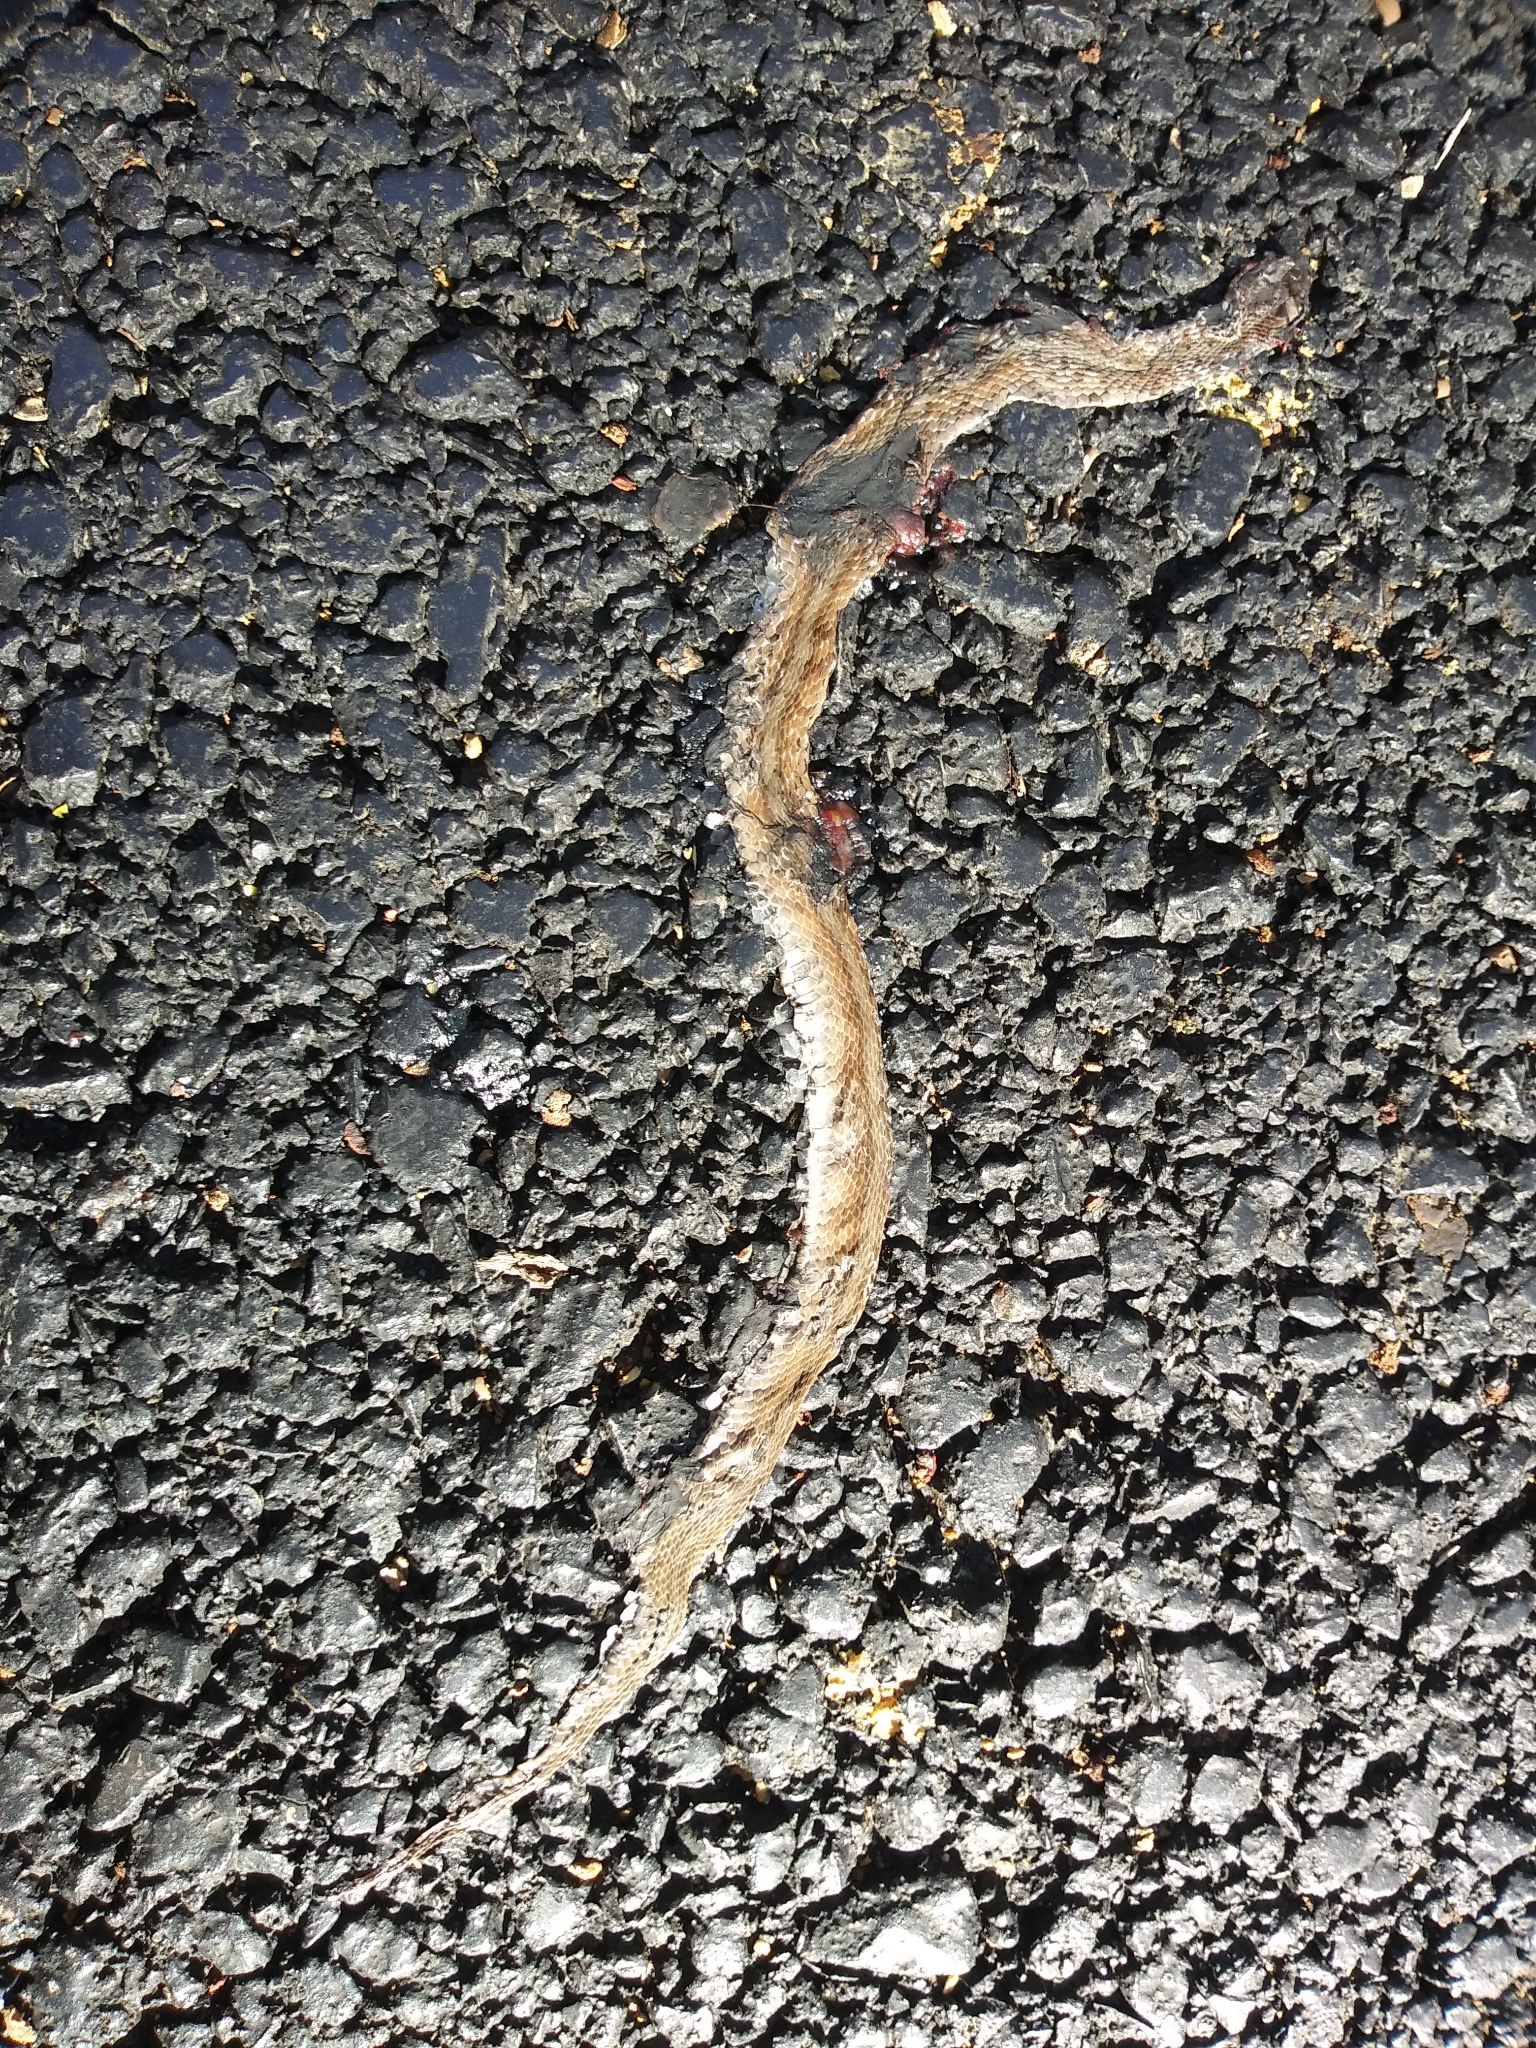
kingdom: Animalia
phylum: Chordata
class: Squamata
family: Colubridae
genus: Storeria
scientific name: Storeria dekayi
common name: (dekay’s) brown snake
